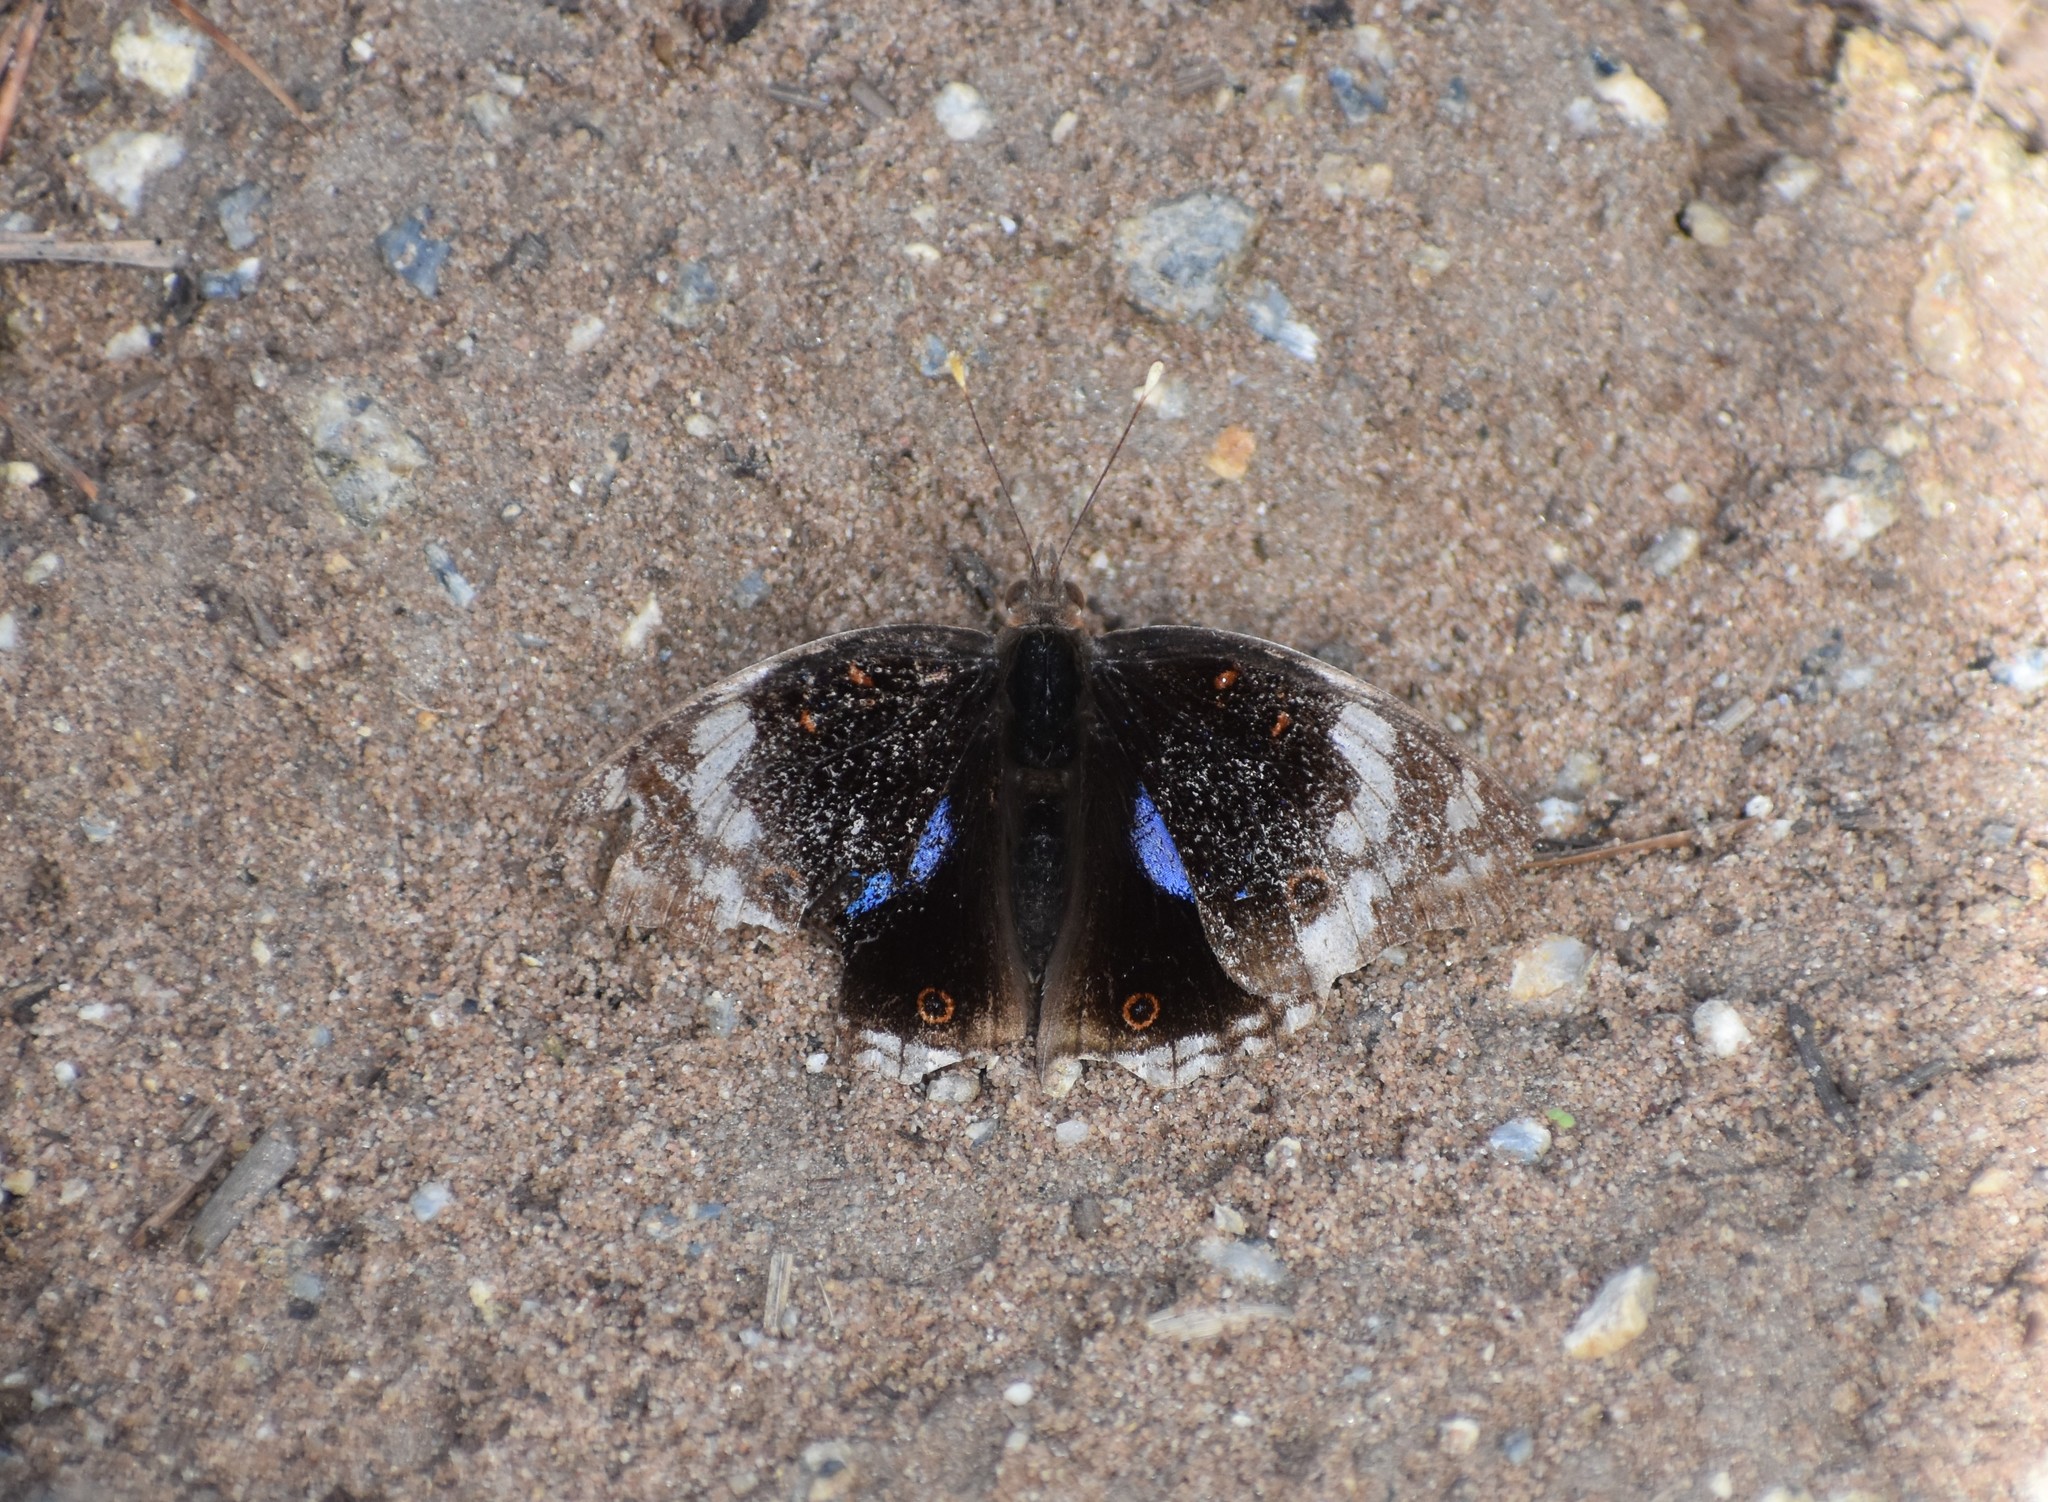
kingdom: Animalia
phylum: Arthropoda
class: Insecta
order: Lepidoptera
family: Nymphalidae
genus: Junonia
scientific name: Junonia oenone
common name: Dark blue pansy
